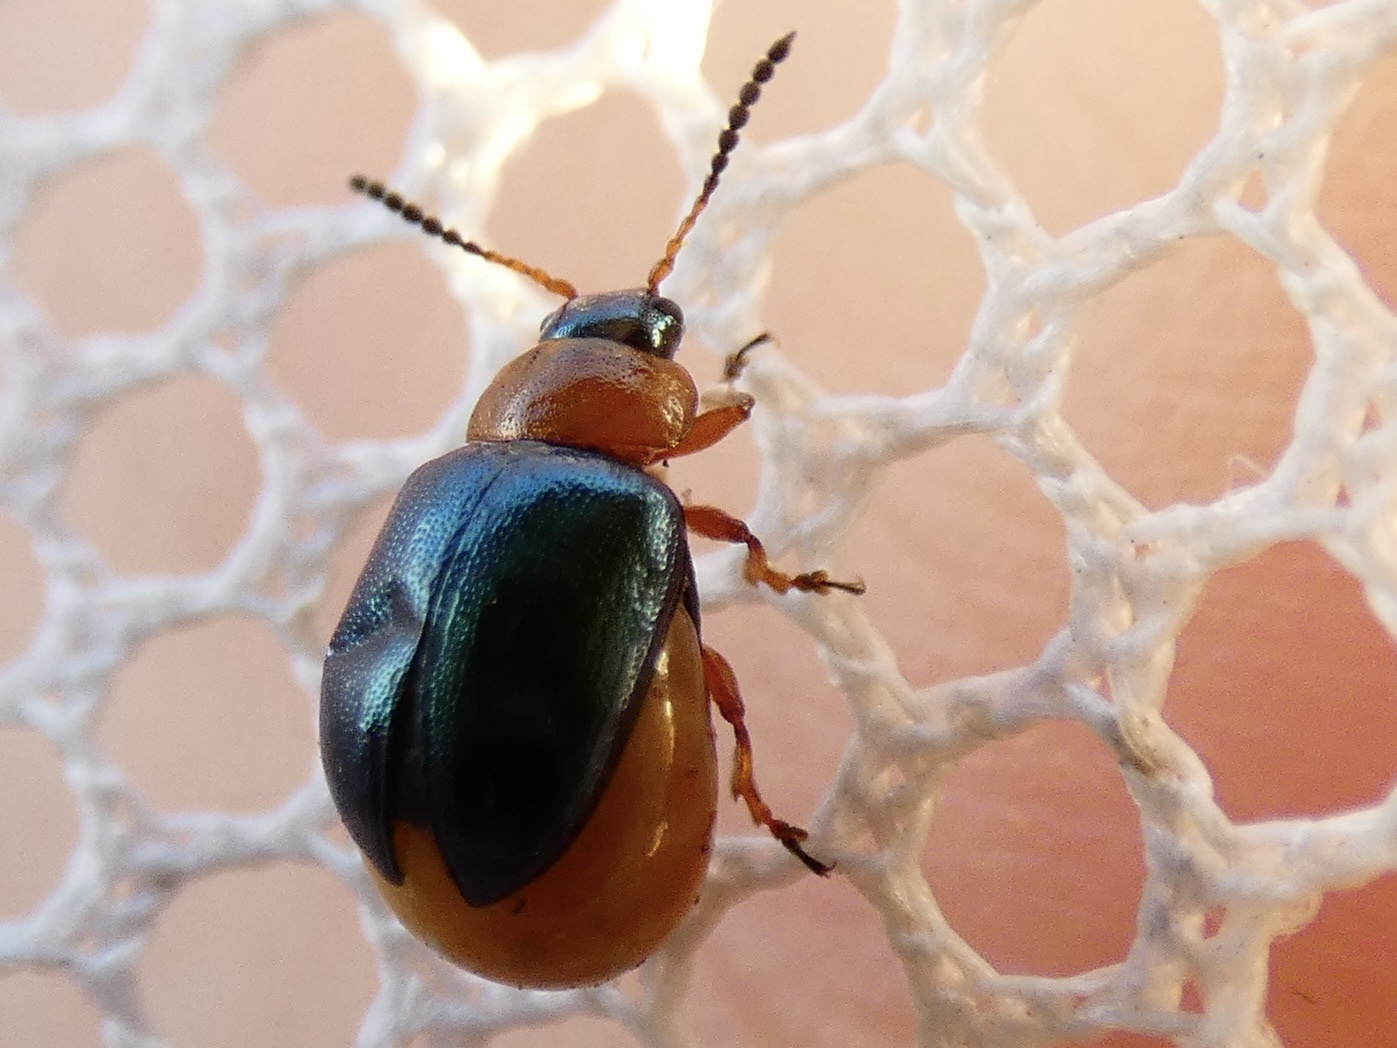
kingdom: Animalia
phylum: Arthropoda
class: Insecta
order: Coleoptera
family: Chrysomelidae
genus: Gastrophysa
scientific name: Gastrophysa polygoni
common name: Knotweed leaf beetle
